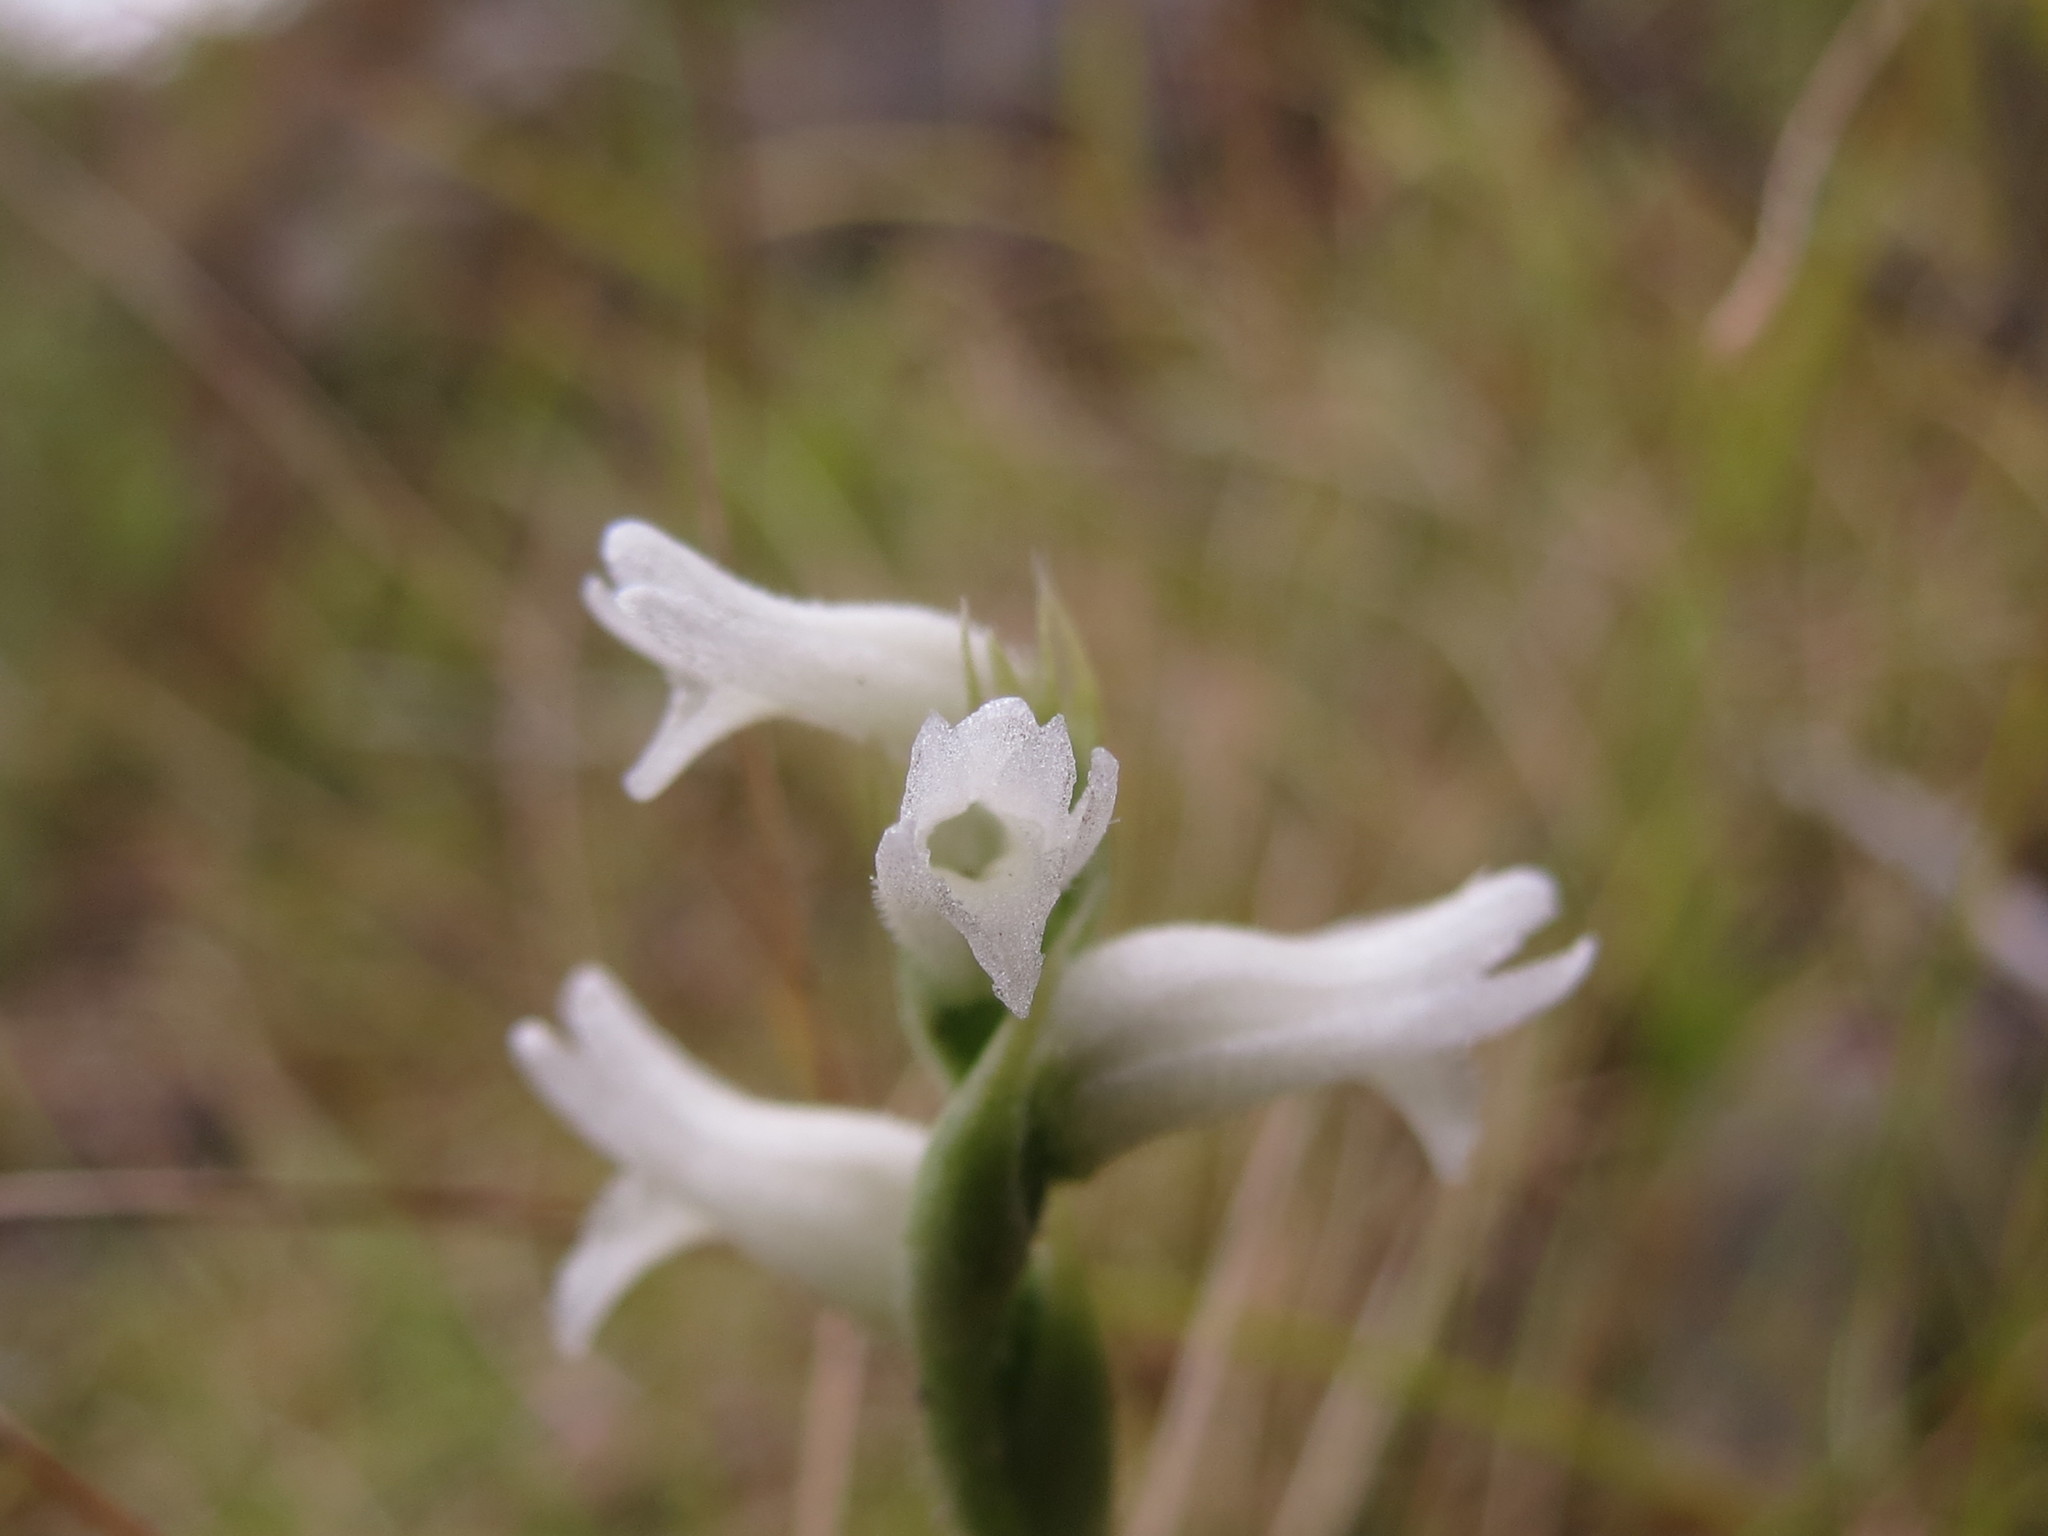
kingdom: Plantae
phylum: Tracheophyta
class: Liliopsida
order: Asparagales
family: Orchidaceae
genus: Spiranthes
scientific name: Spiranthes incurva
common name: Sphinx ladies'-tresses
